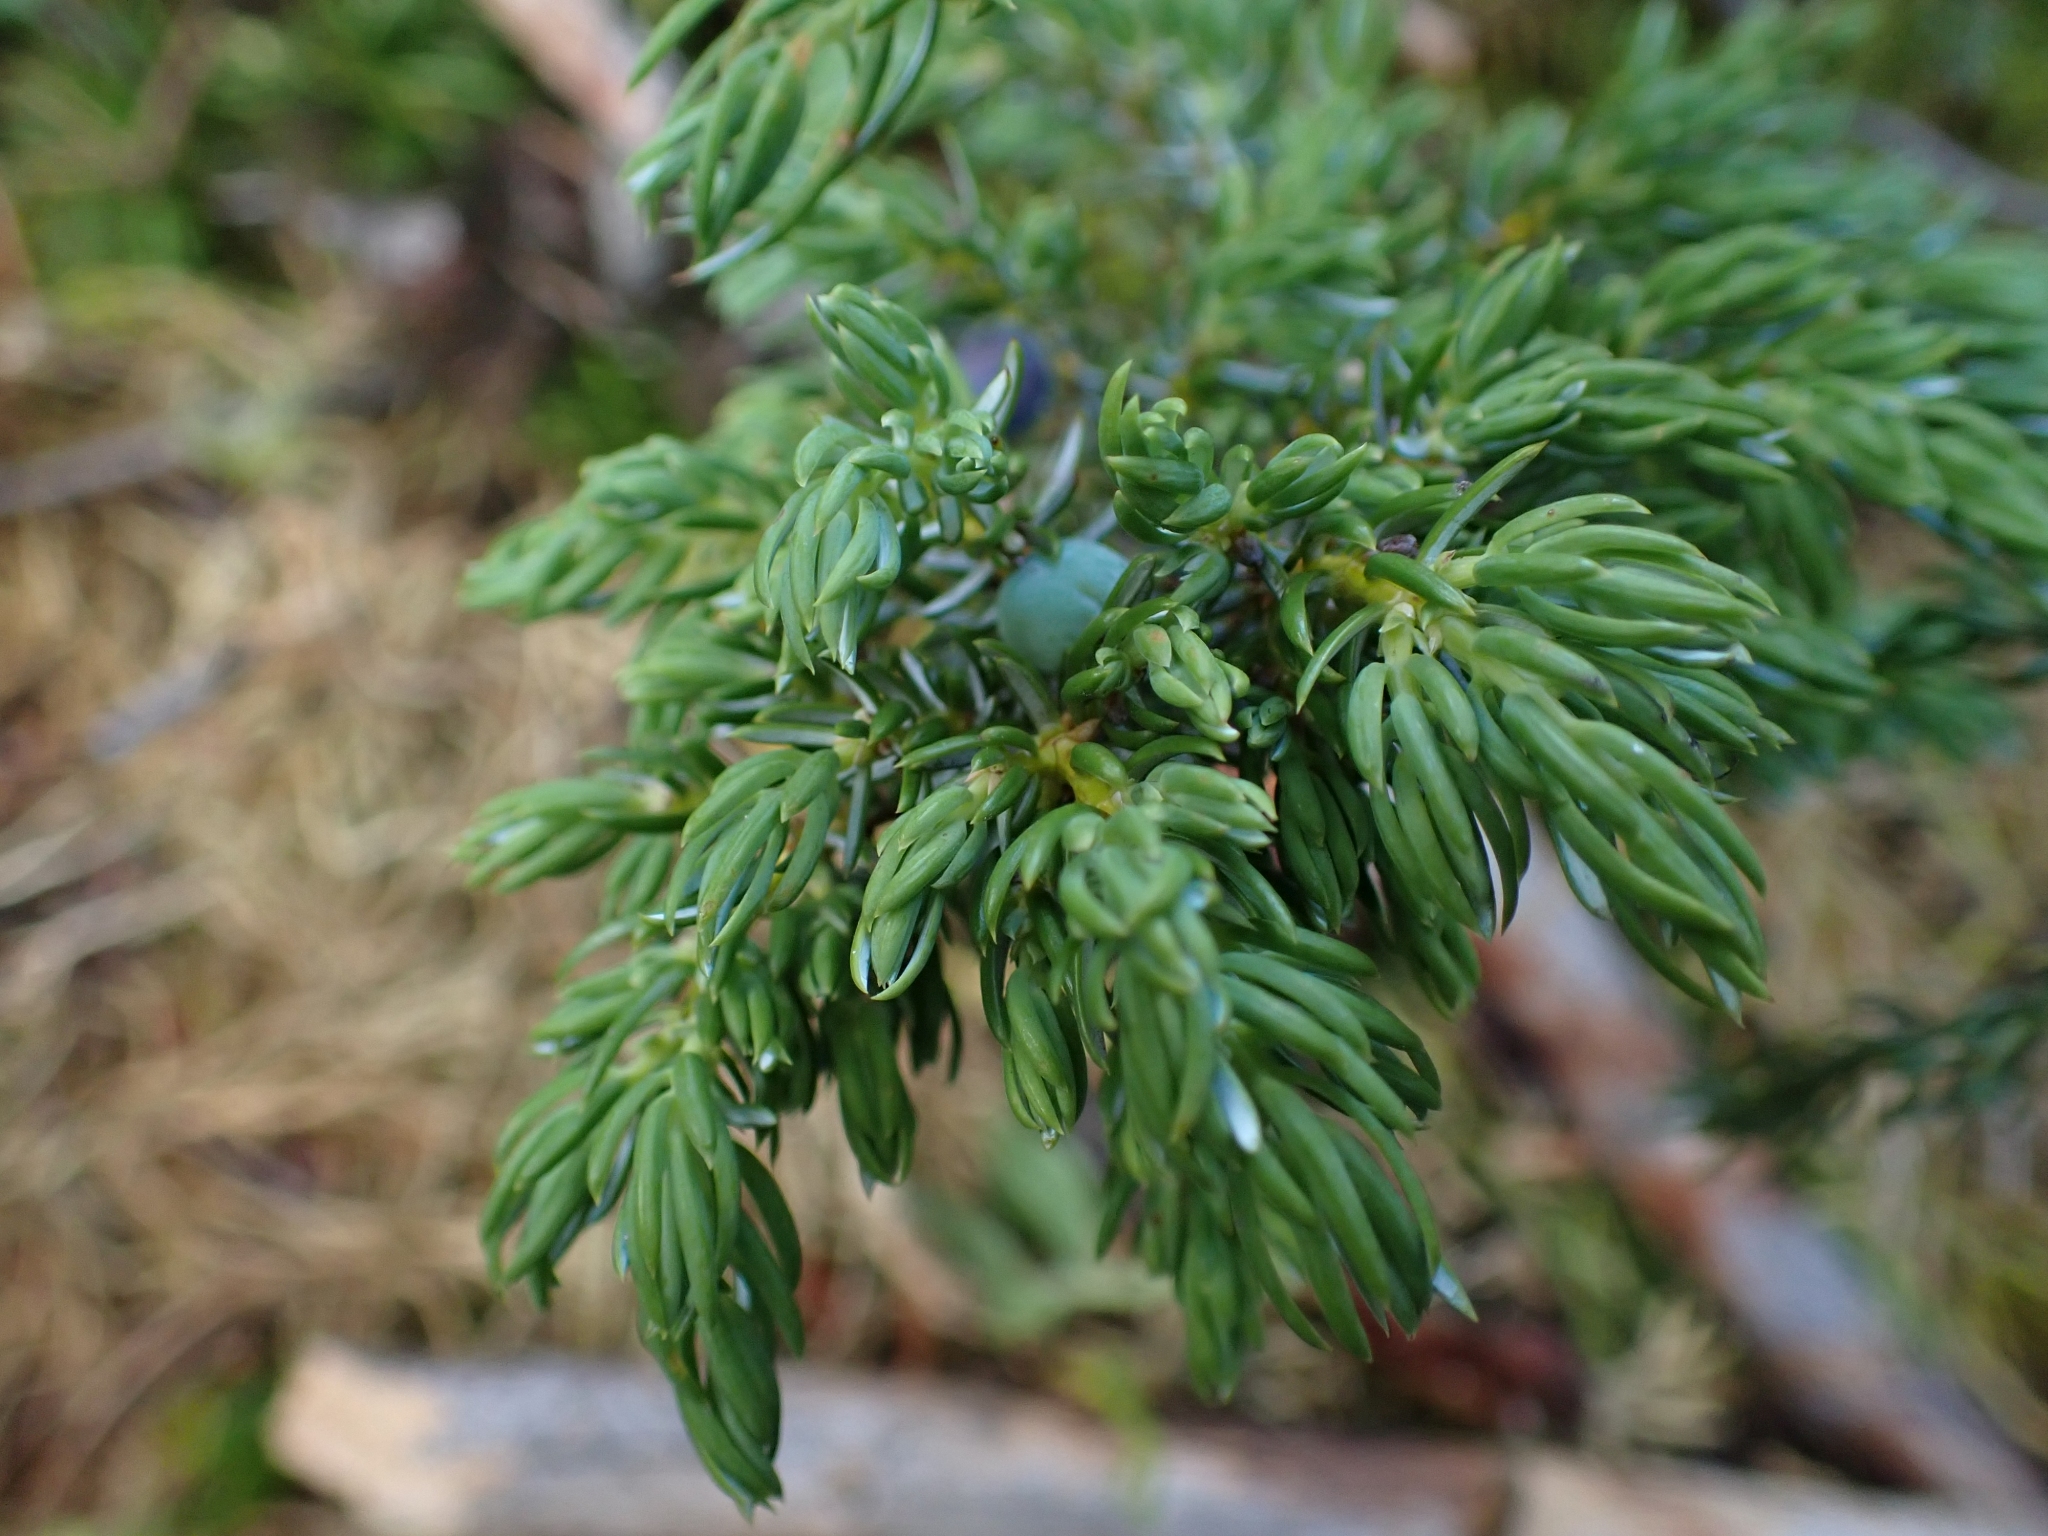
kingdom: Plantae
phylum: Tracheophyta
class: Pinopsida
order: Pinales
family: Cupressaceae
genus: Juniperus
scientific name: Juniperus communis
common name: Common juniper
